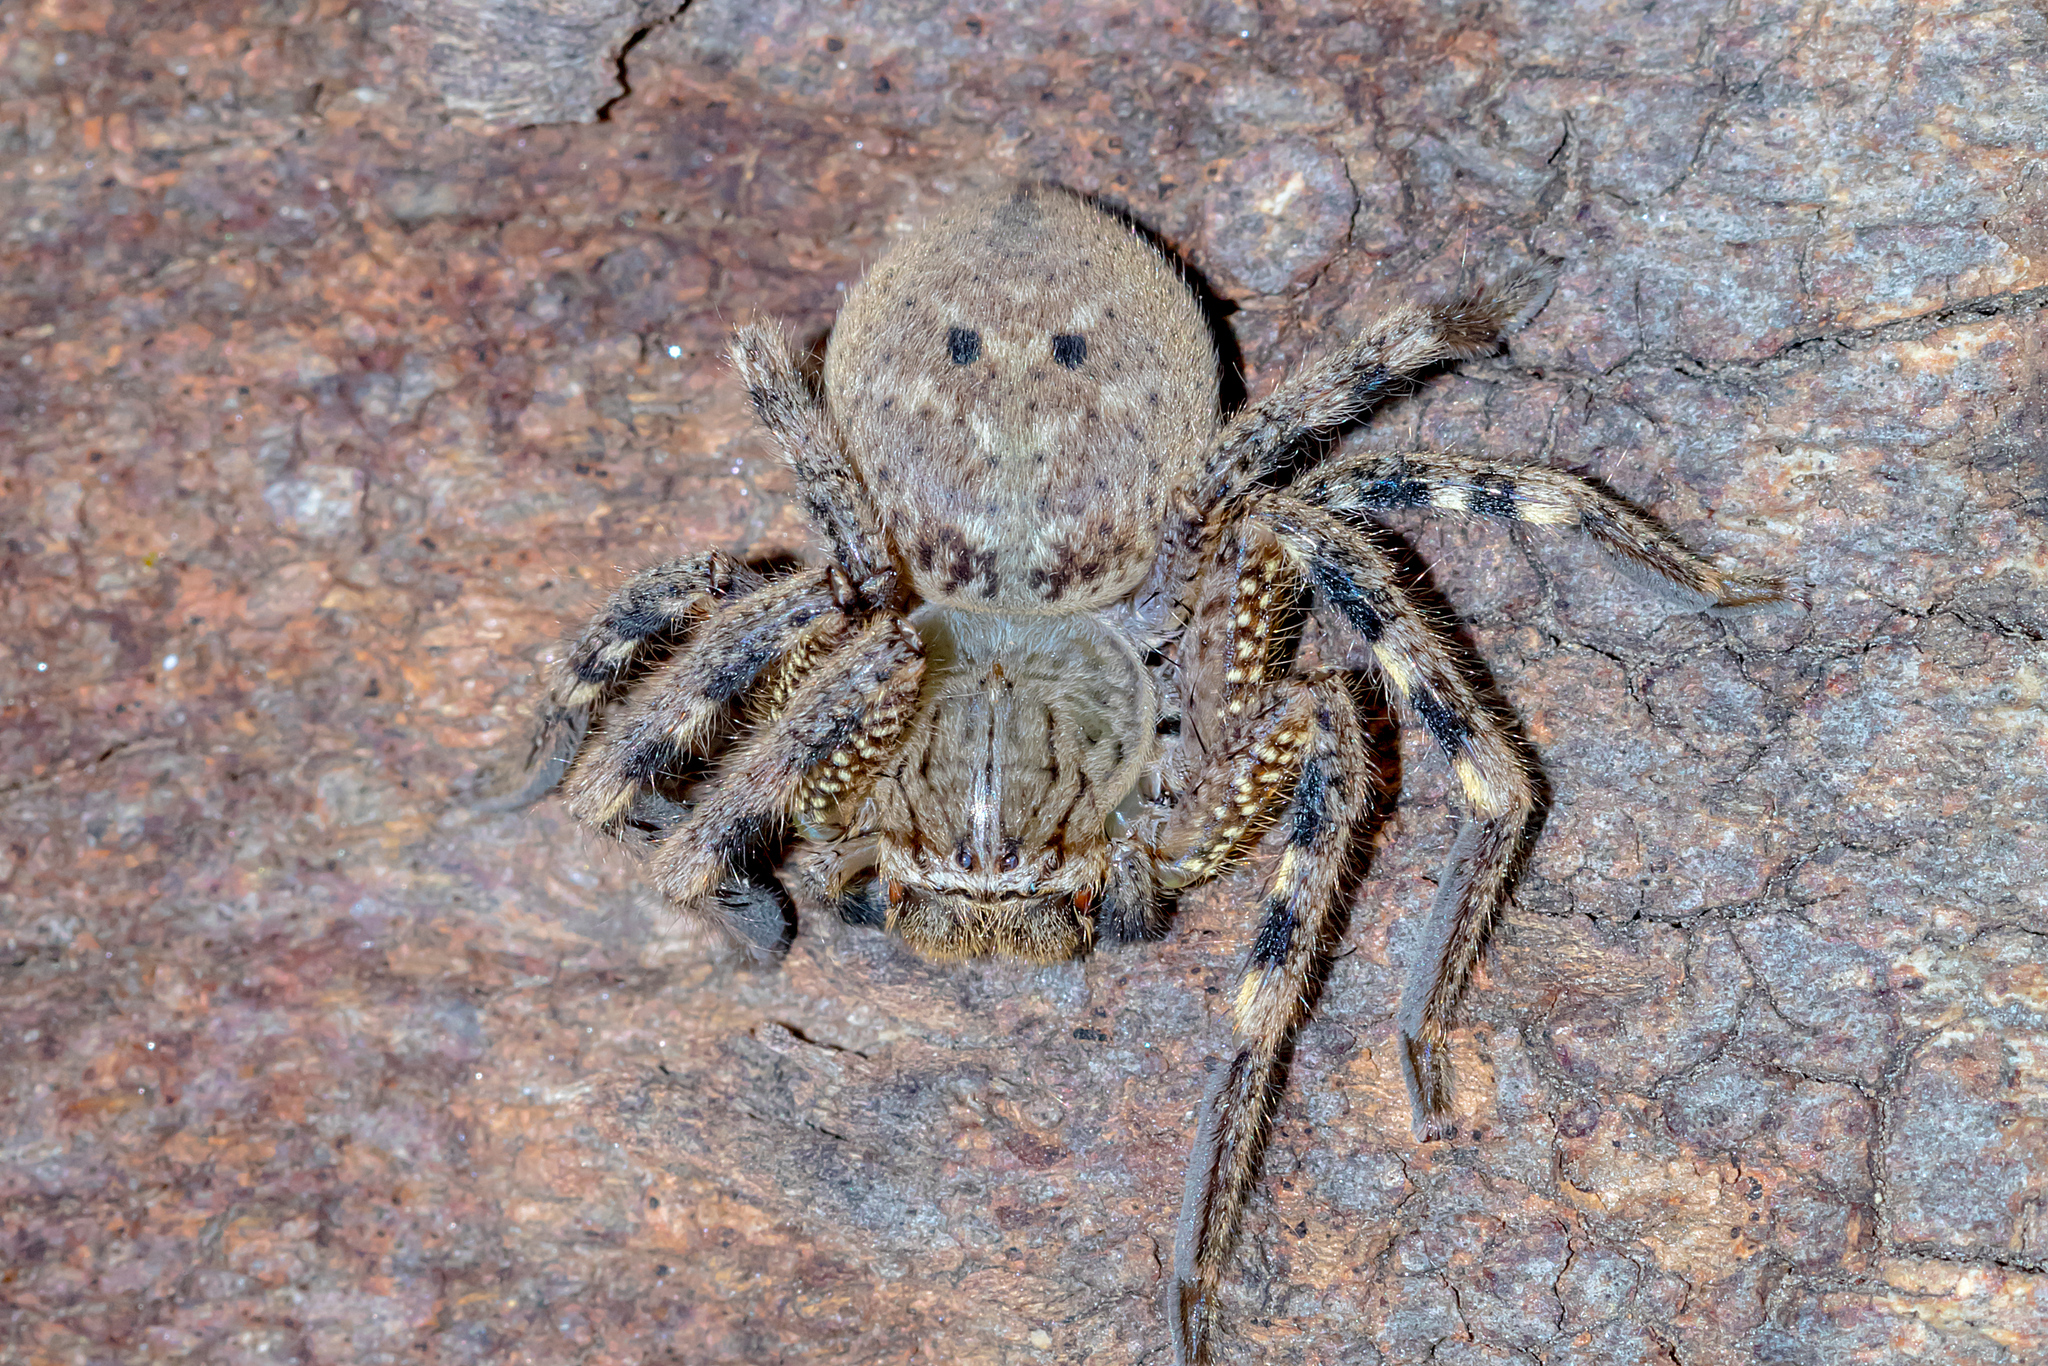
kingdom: Animalia
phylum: Arthropoda
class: Arachnida
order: Araneae
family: Sparassidae
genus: Neosparassus
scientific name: Neosparassus calligaster
